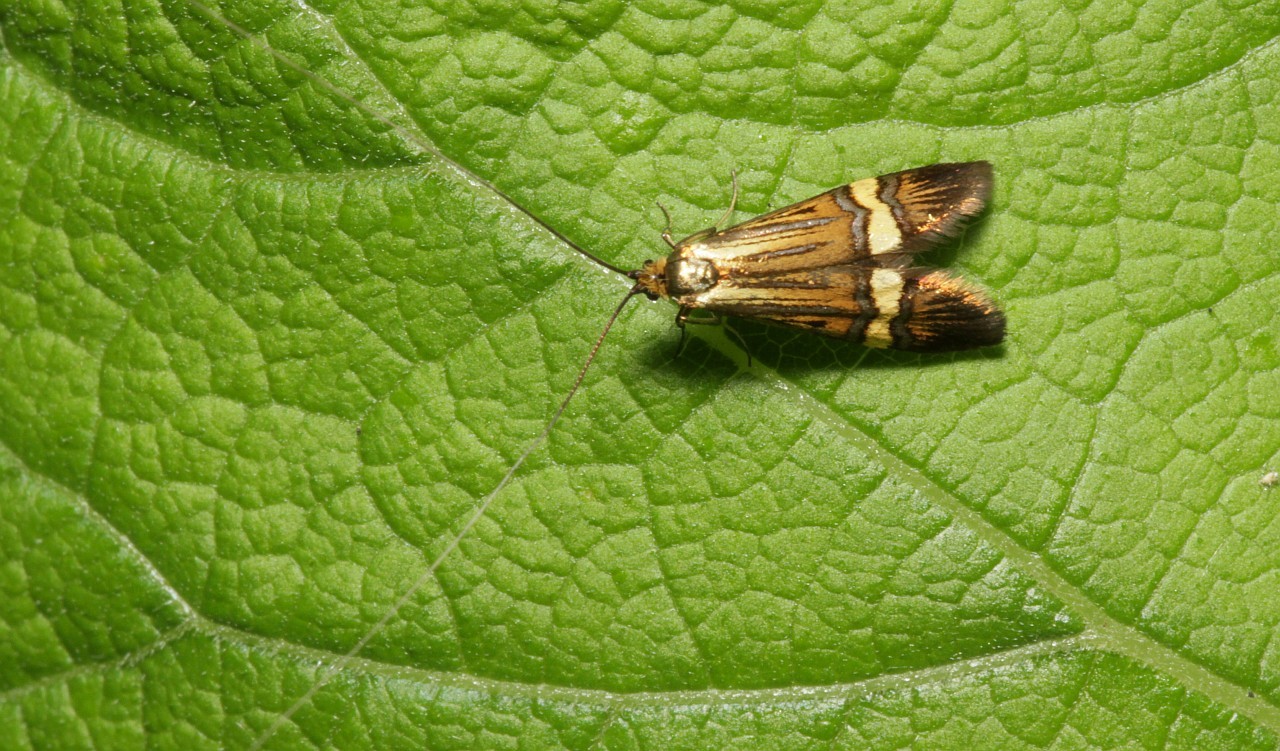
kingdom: Animalia
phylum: Arthropoda
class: Insecta
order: Lepidoptera
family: Adelidae
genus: Nemophora
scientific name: Nemophora degeerella
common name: Yellow-barred long-horn
